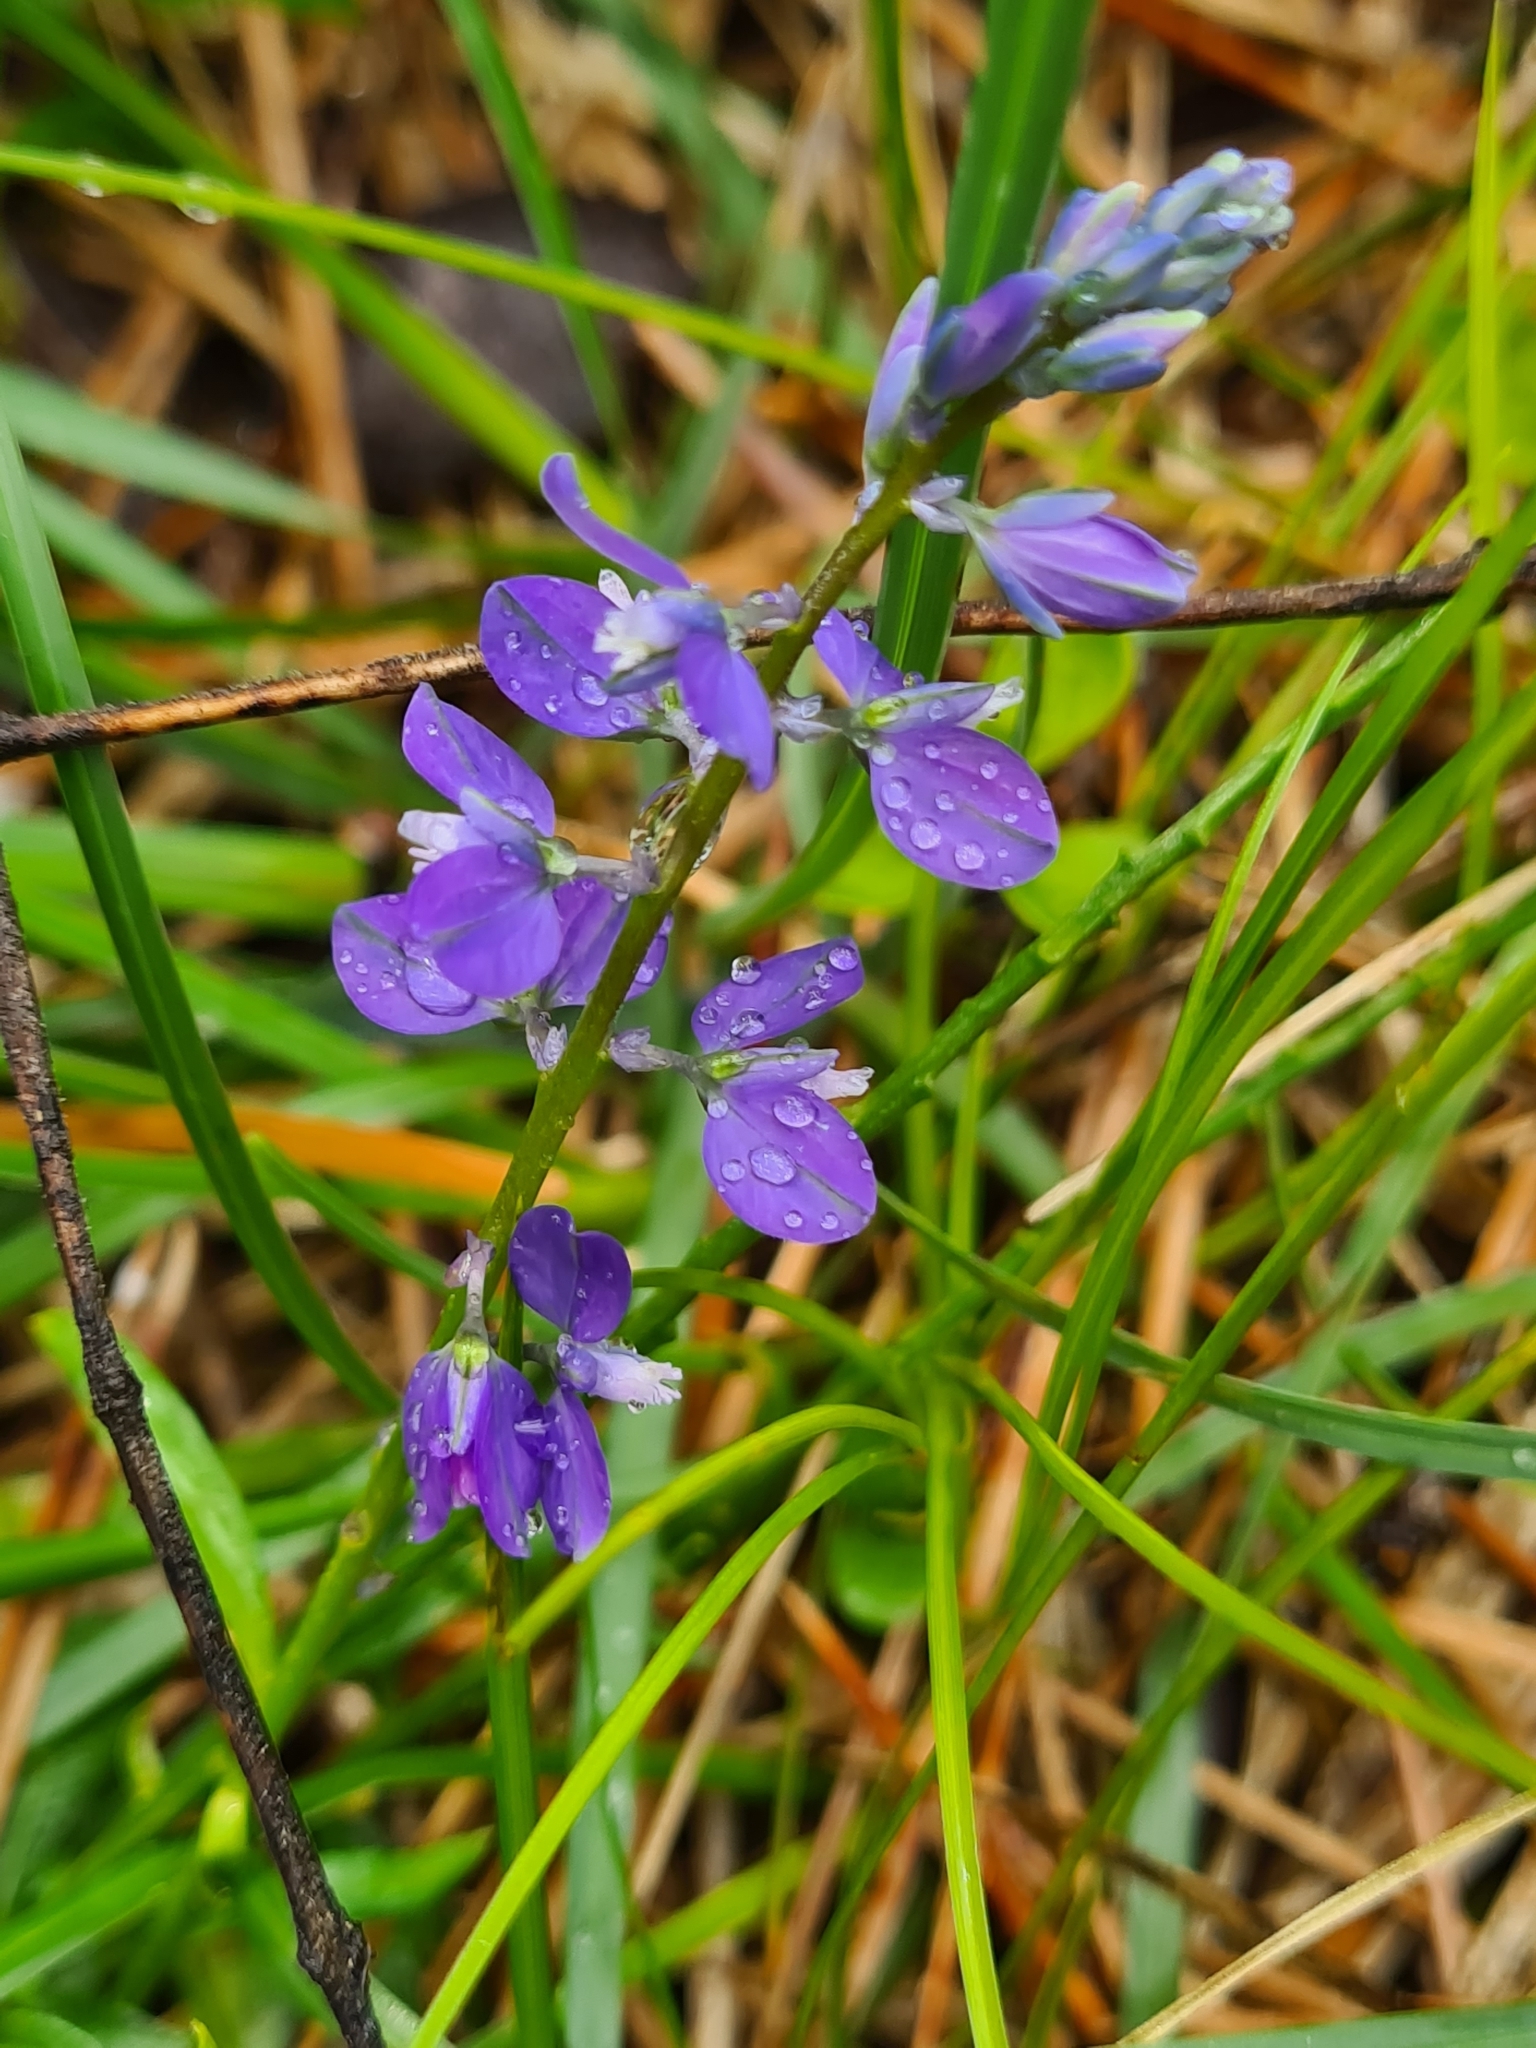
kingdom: Plantae
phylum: Tracheophyta
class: Magnoliopsida
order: Fabales
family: Polygalaceae
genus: Polygala
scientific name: Polygala vulgaris
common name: Common milkwort
